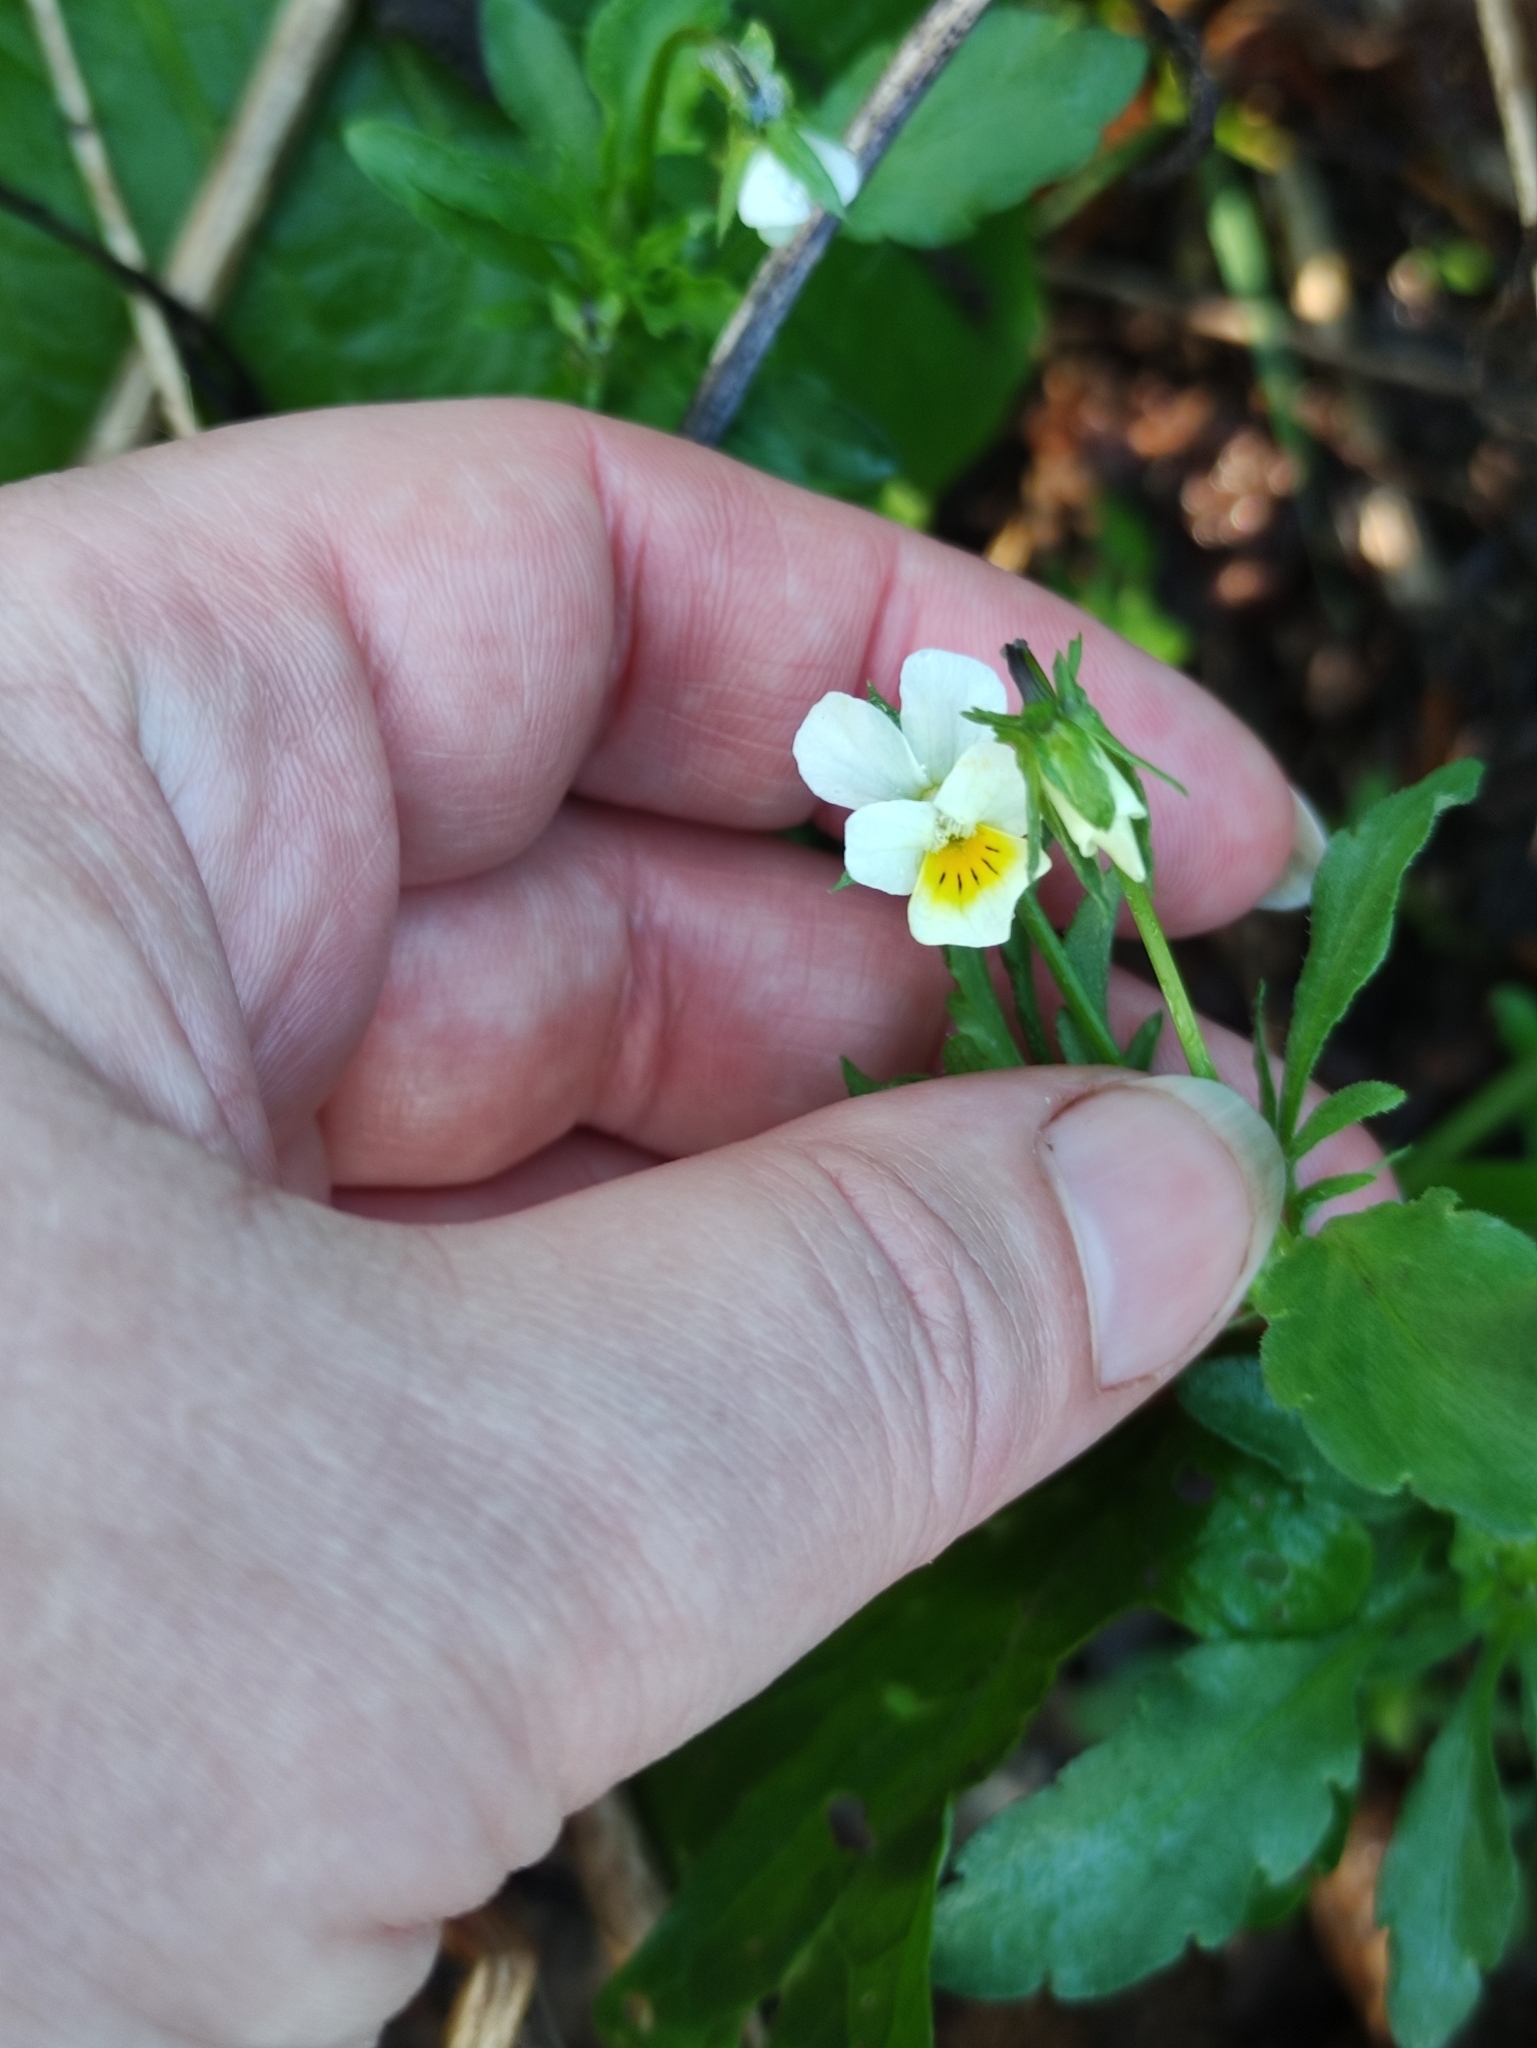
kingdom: Plantae
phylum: Tracheophyta
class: Magnoliopsida
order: Malpighiales
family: Violaceae
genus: Viola
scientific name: Viola arvensis
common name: Field pansy
